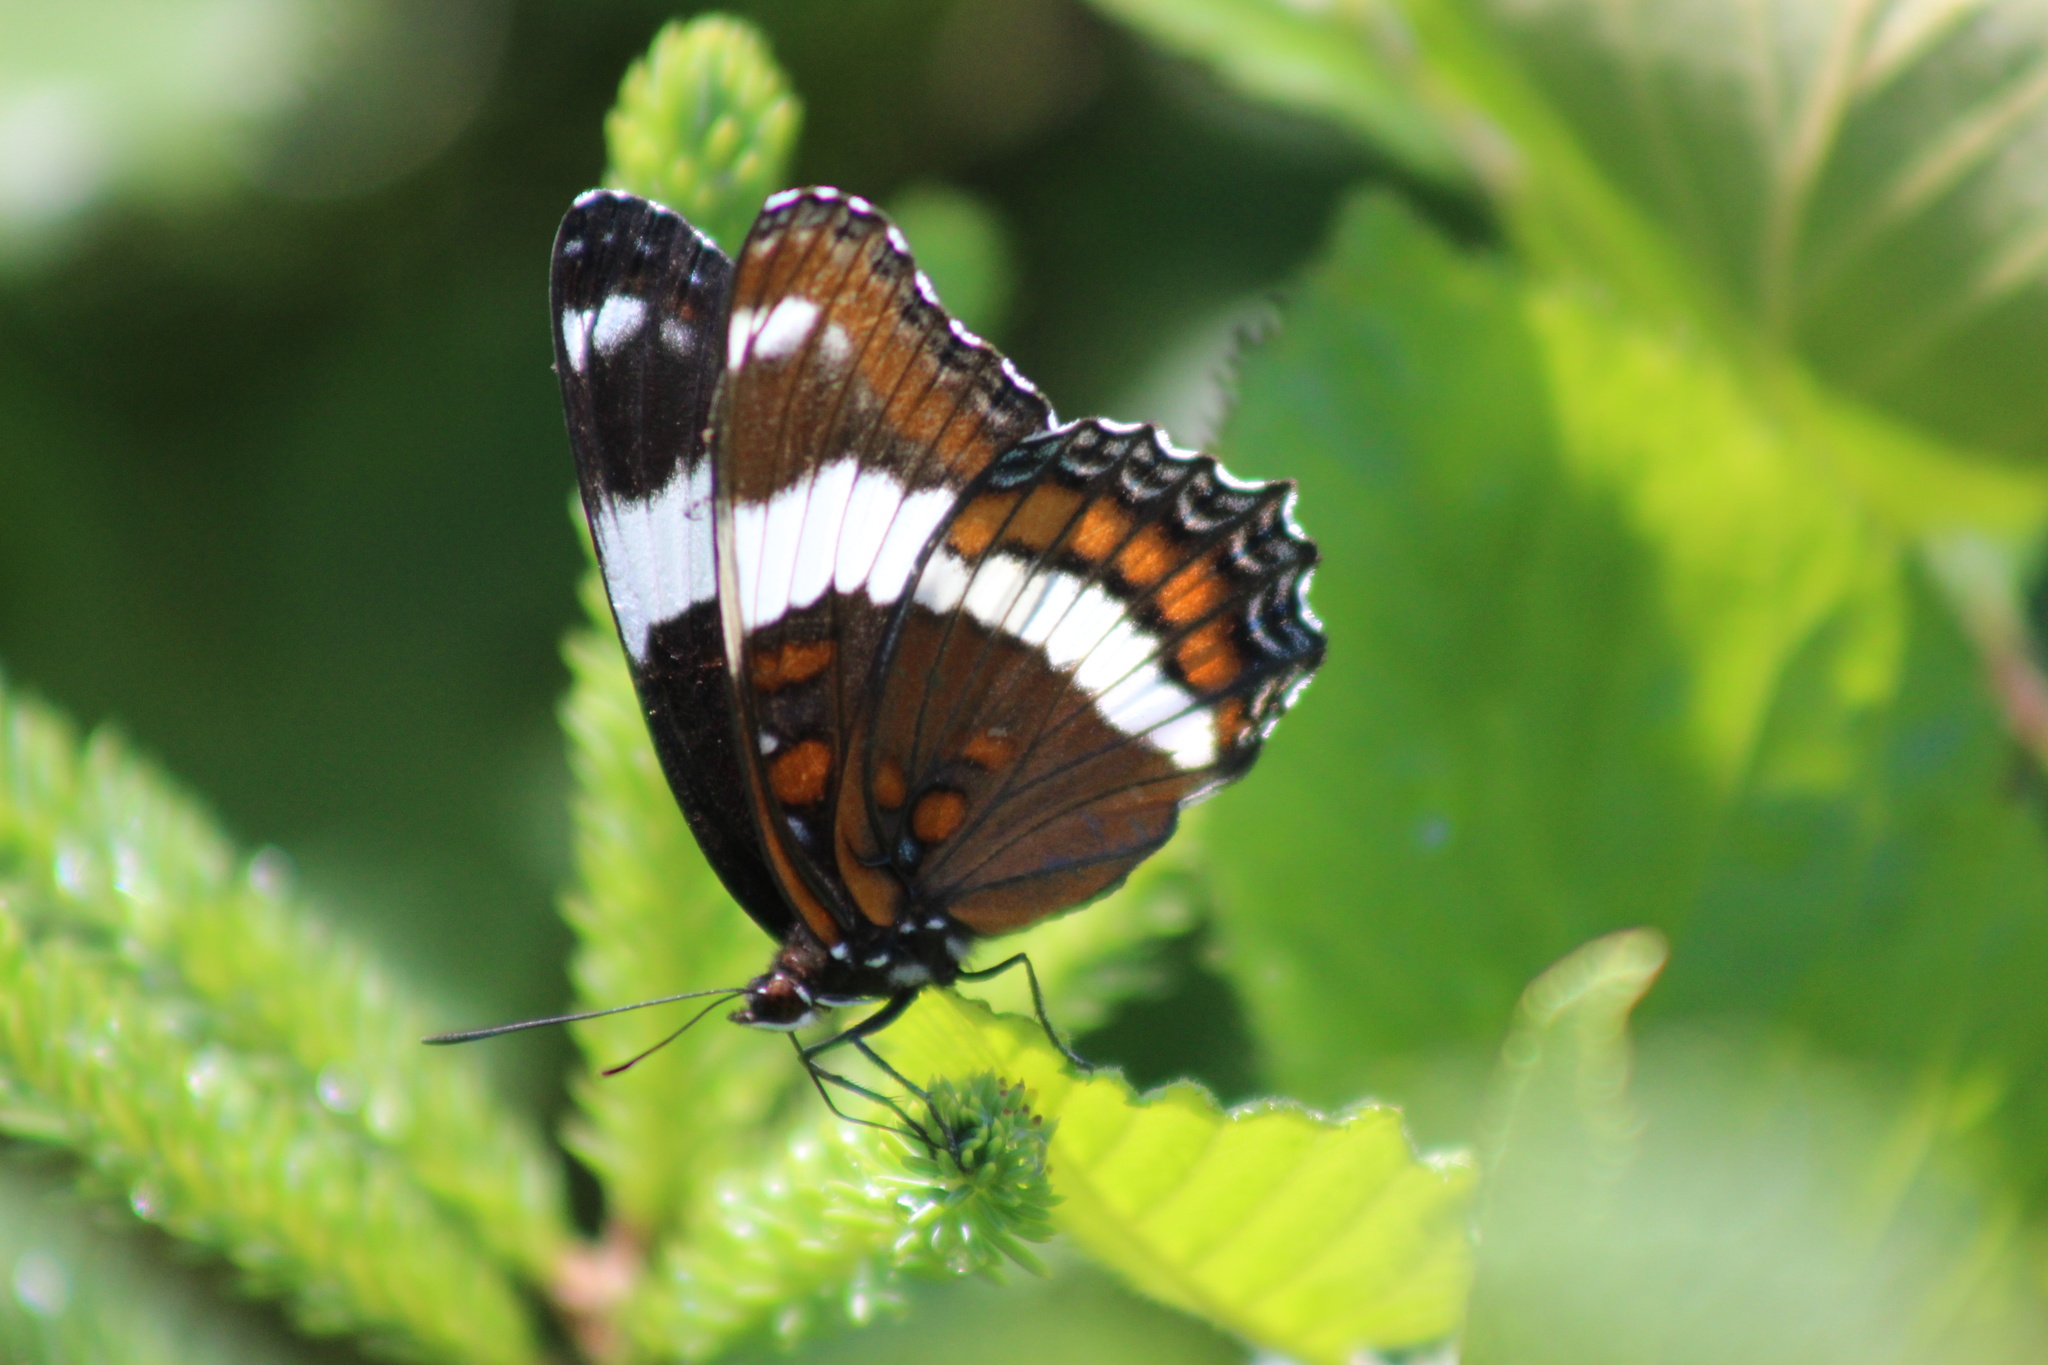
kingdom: Animalia
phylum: Arthropoda
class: Insecta
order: Lepidoptera
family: Nymphalidae
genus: Limenitis
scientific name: Limenitis arthemis
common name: Red-spotted admiral
